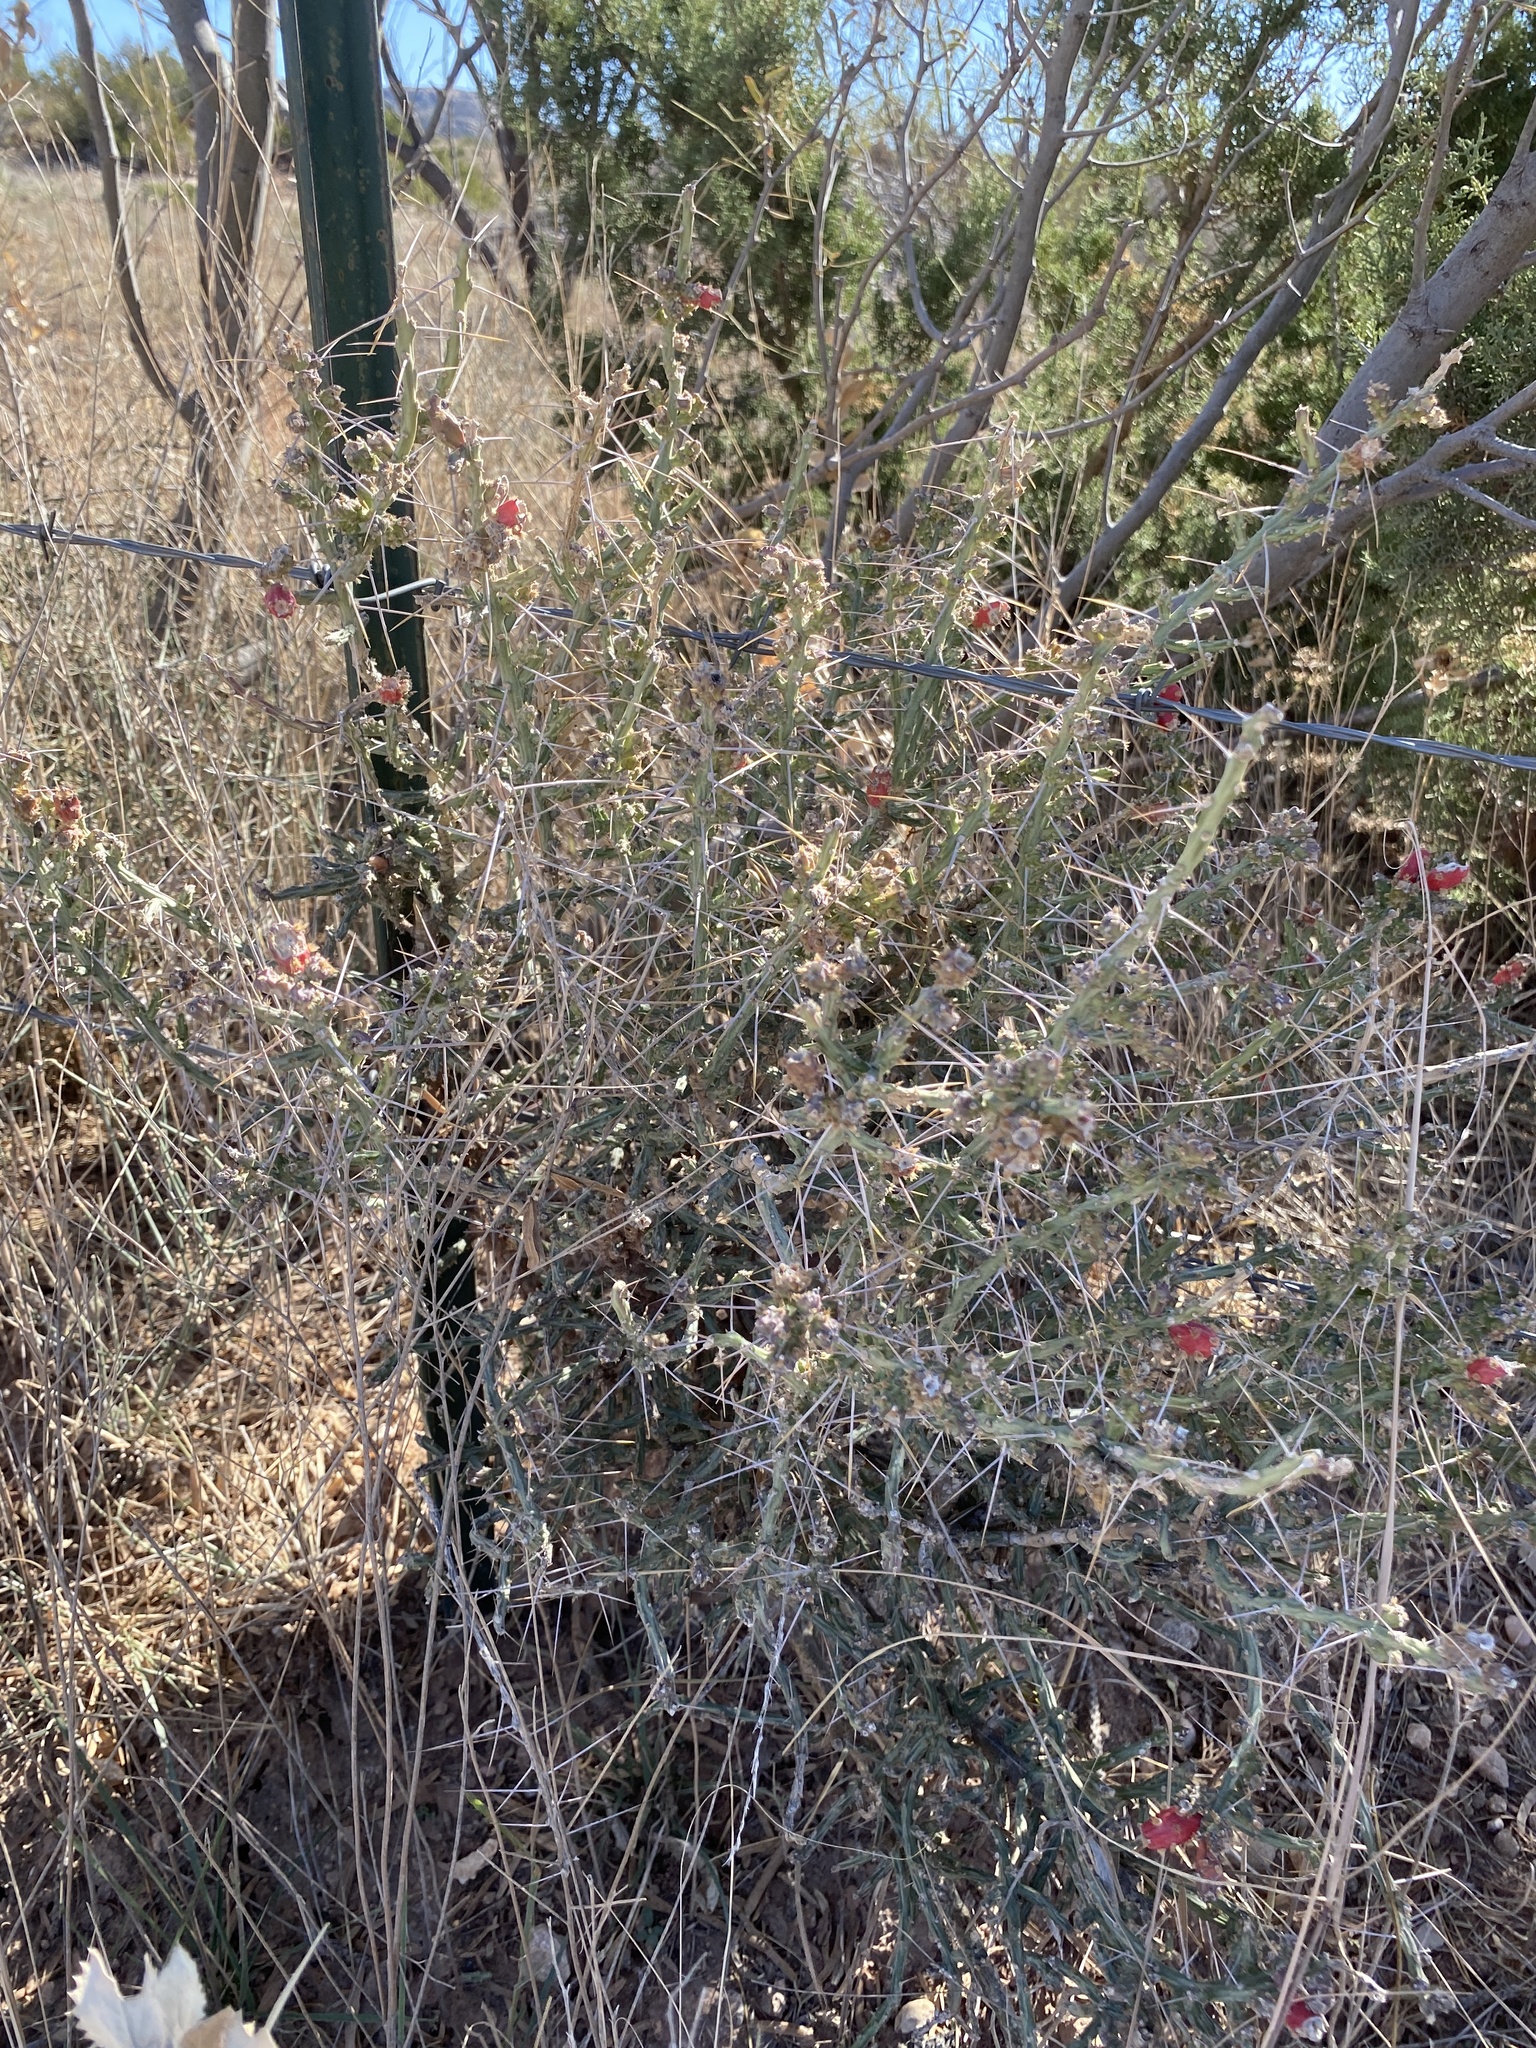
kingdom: Plantae
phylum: Tracheophyta
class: Magnoliopsida
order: Caryophyllales
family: Cactaceae
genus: Cylindropuntia
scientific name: Cylindropuntia leptocaulis
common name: Christmas cactus
